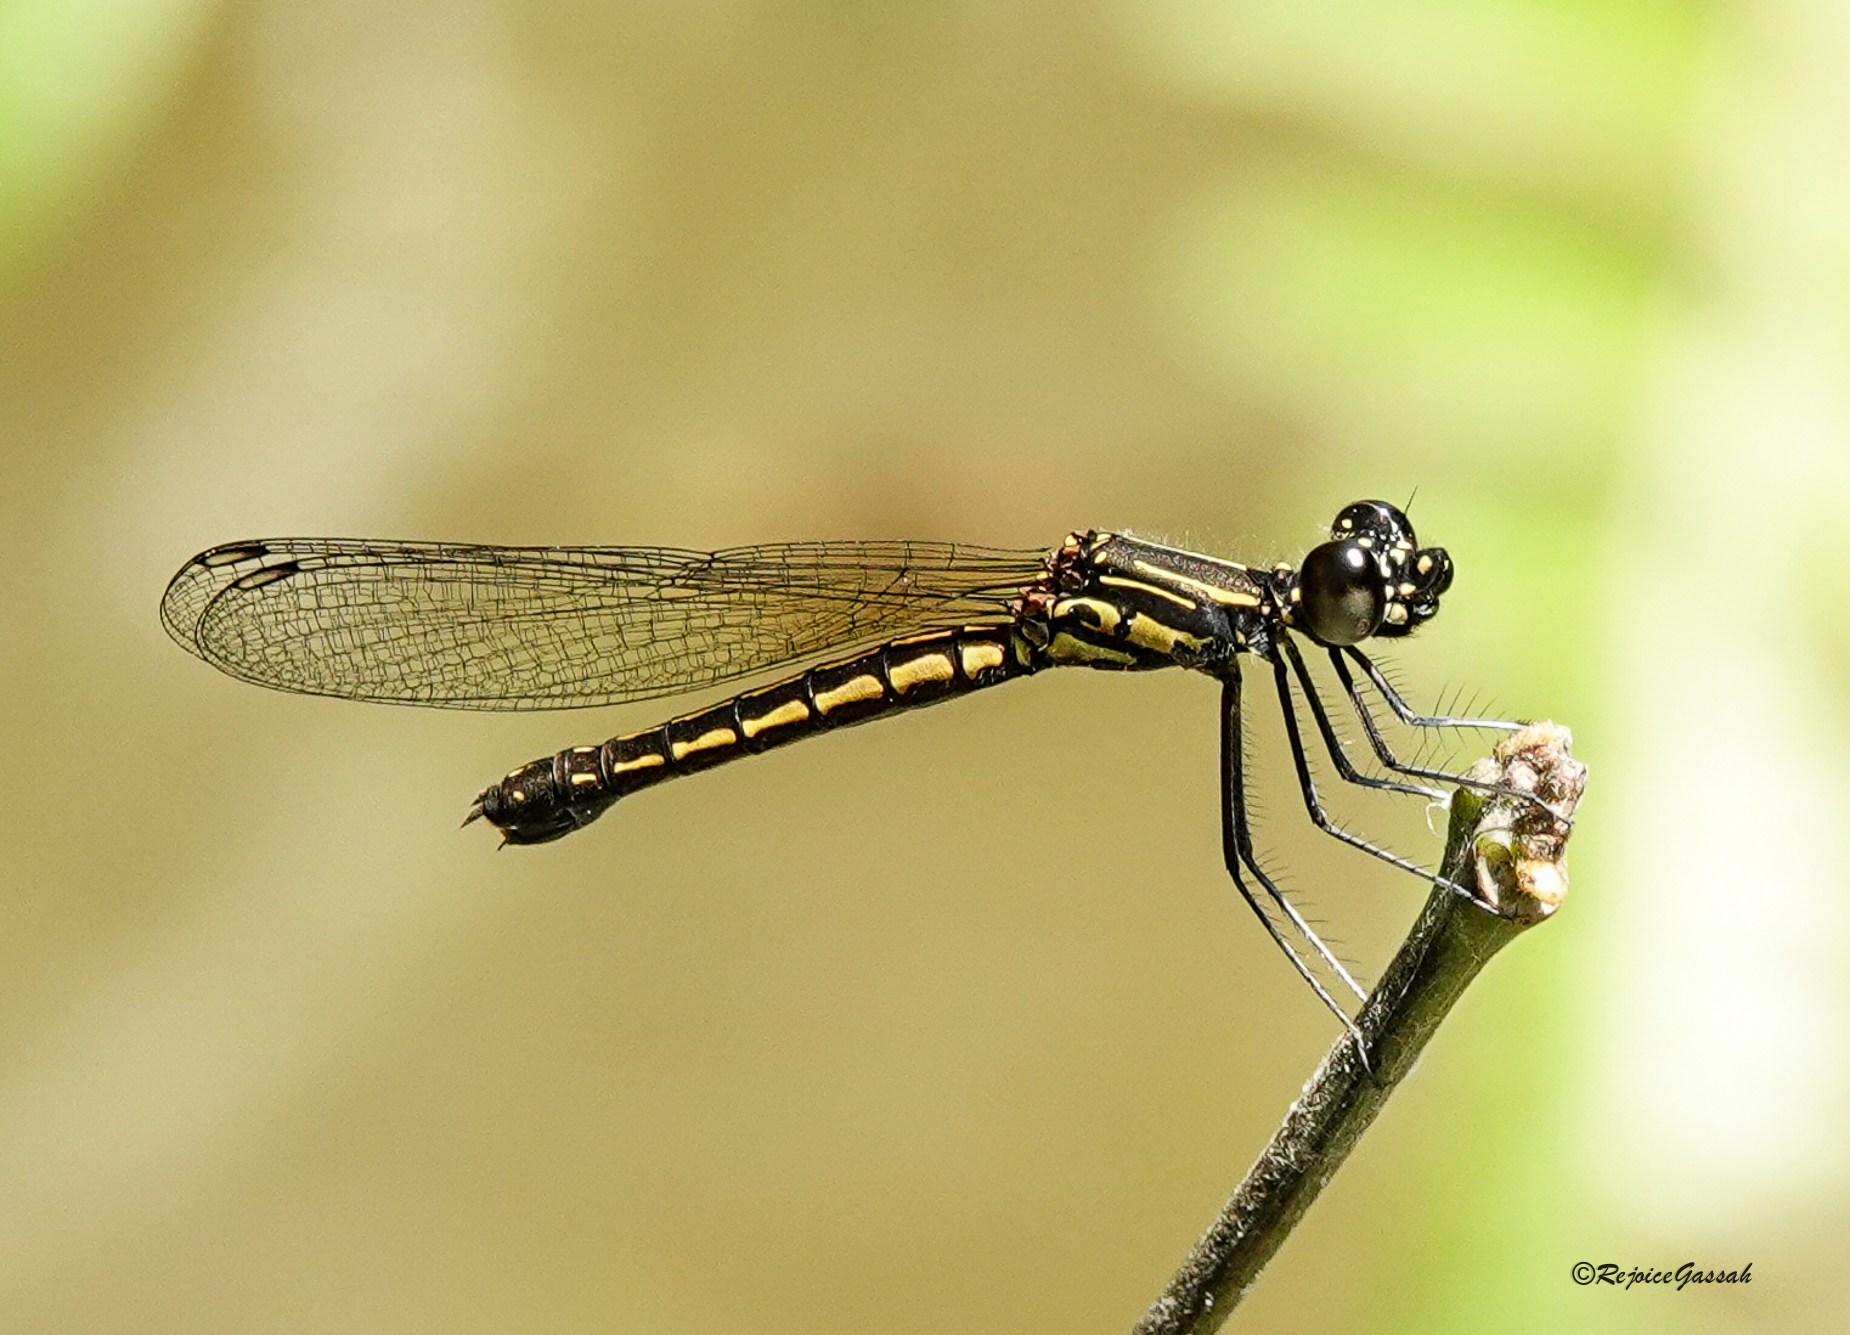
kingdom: Animalia
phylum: Arthropoda
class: Insecta
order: Odonata
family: Chlorocyphidae
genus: Libellago
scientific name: Libellago lineata
